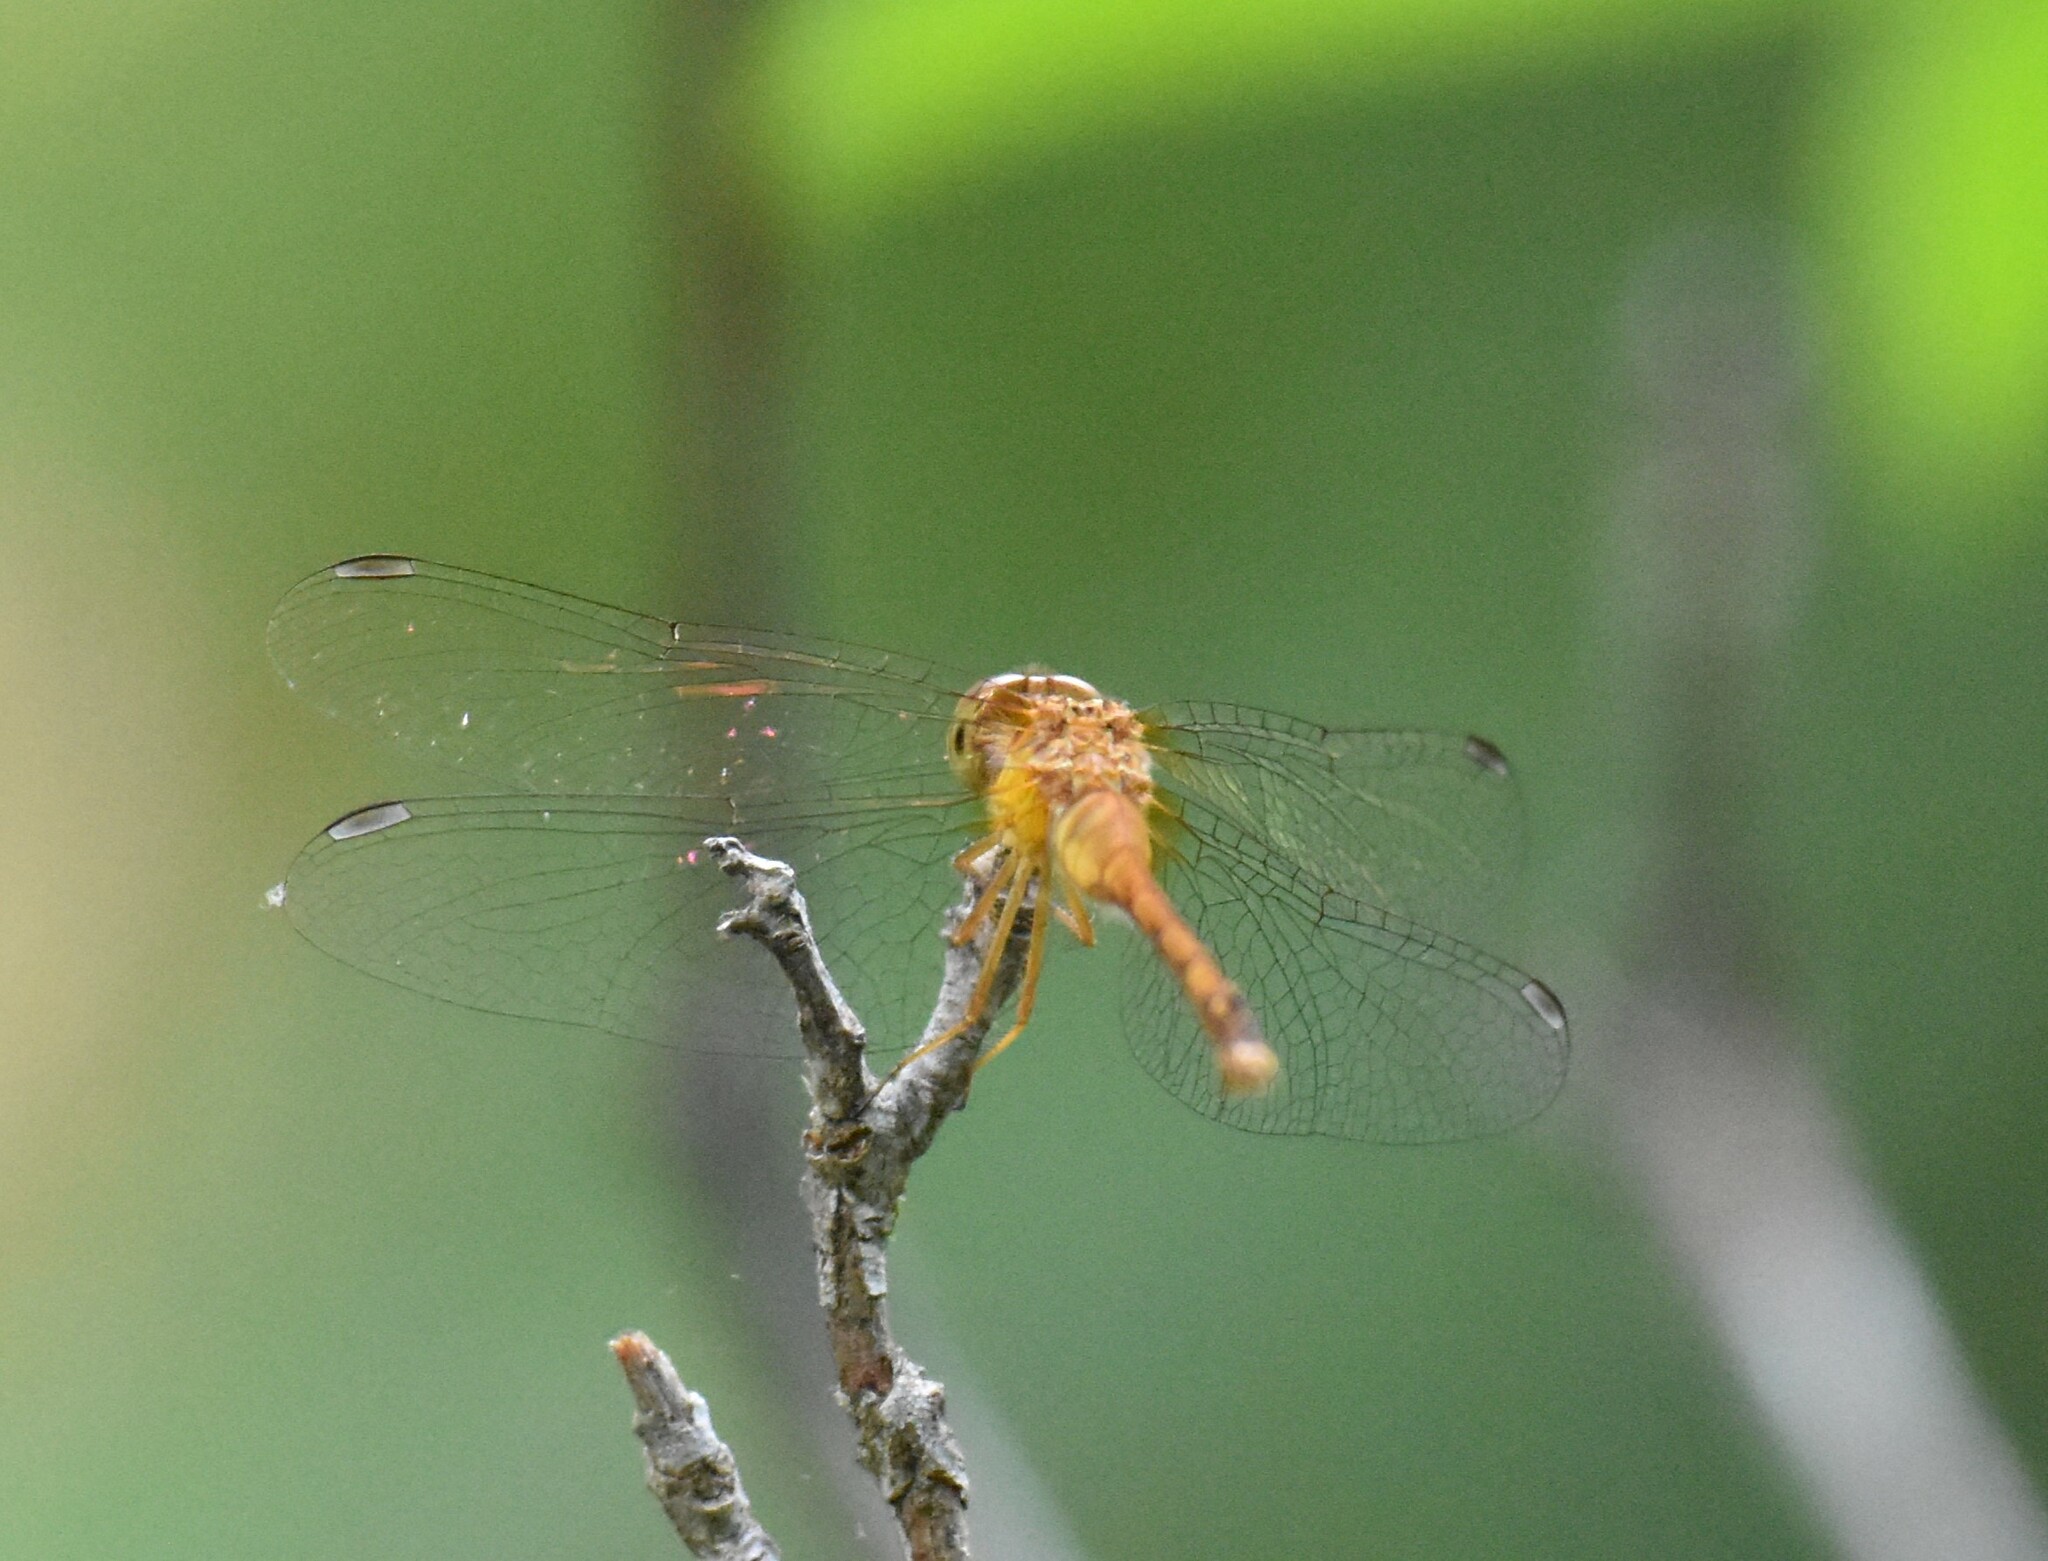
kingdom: Animalia
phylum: Arthropoda
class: Insecta
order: Odonata
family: Libellulidae
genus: Sympetrum
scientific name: Sympetrum vicinum
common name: Autumn meadowhawk
